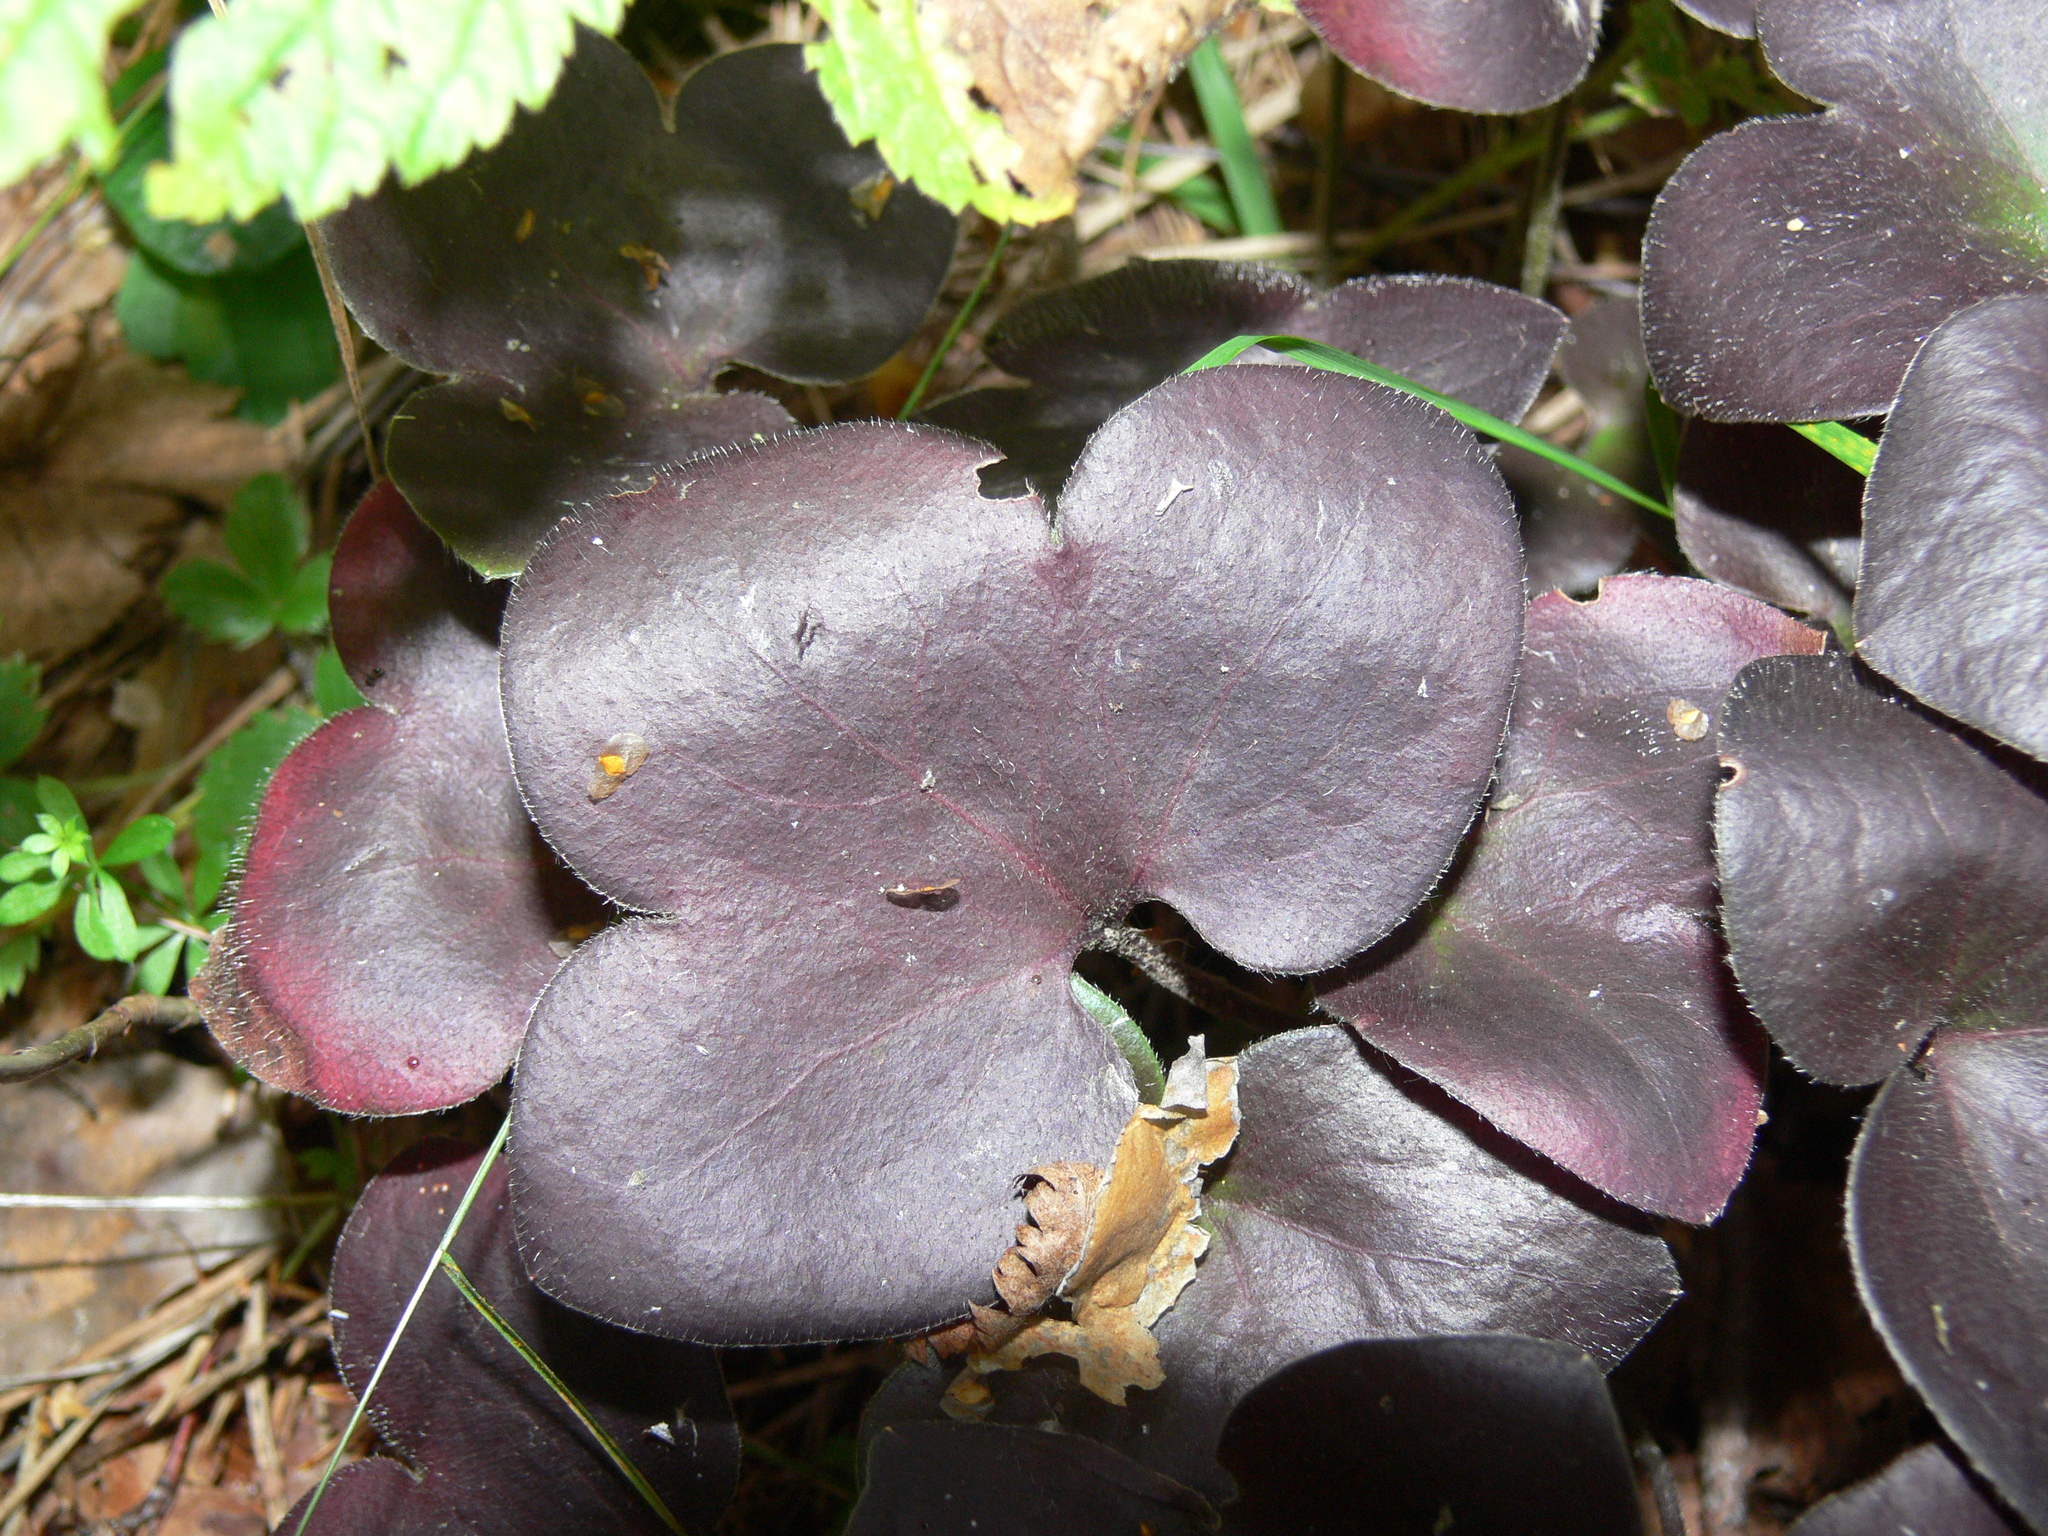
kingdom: Plantae
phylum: Tracheophyta
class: Magnoliopsida
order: Ranunculales
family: Ranunculaceae
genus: Hepatica
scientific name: Hepatica nobilis
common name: Liverleaf
